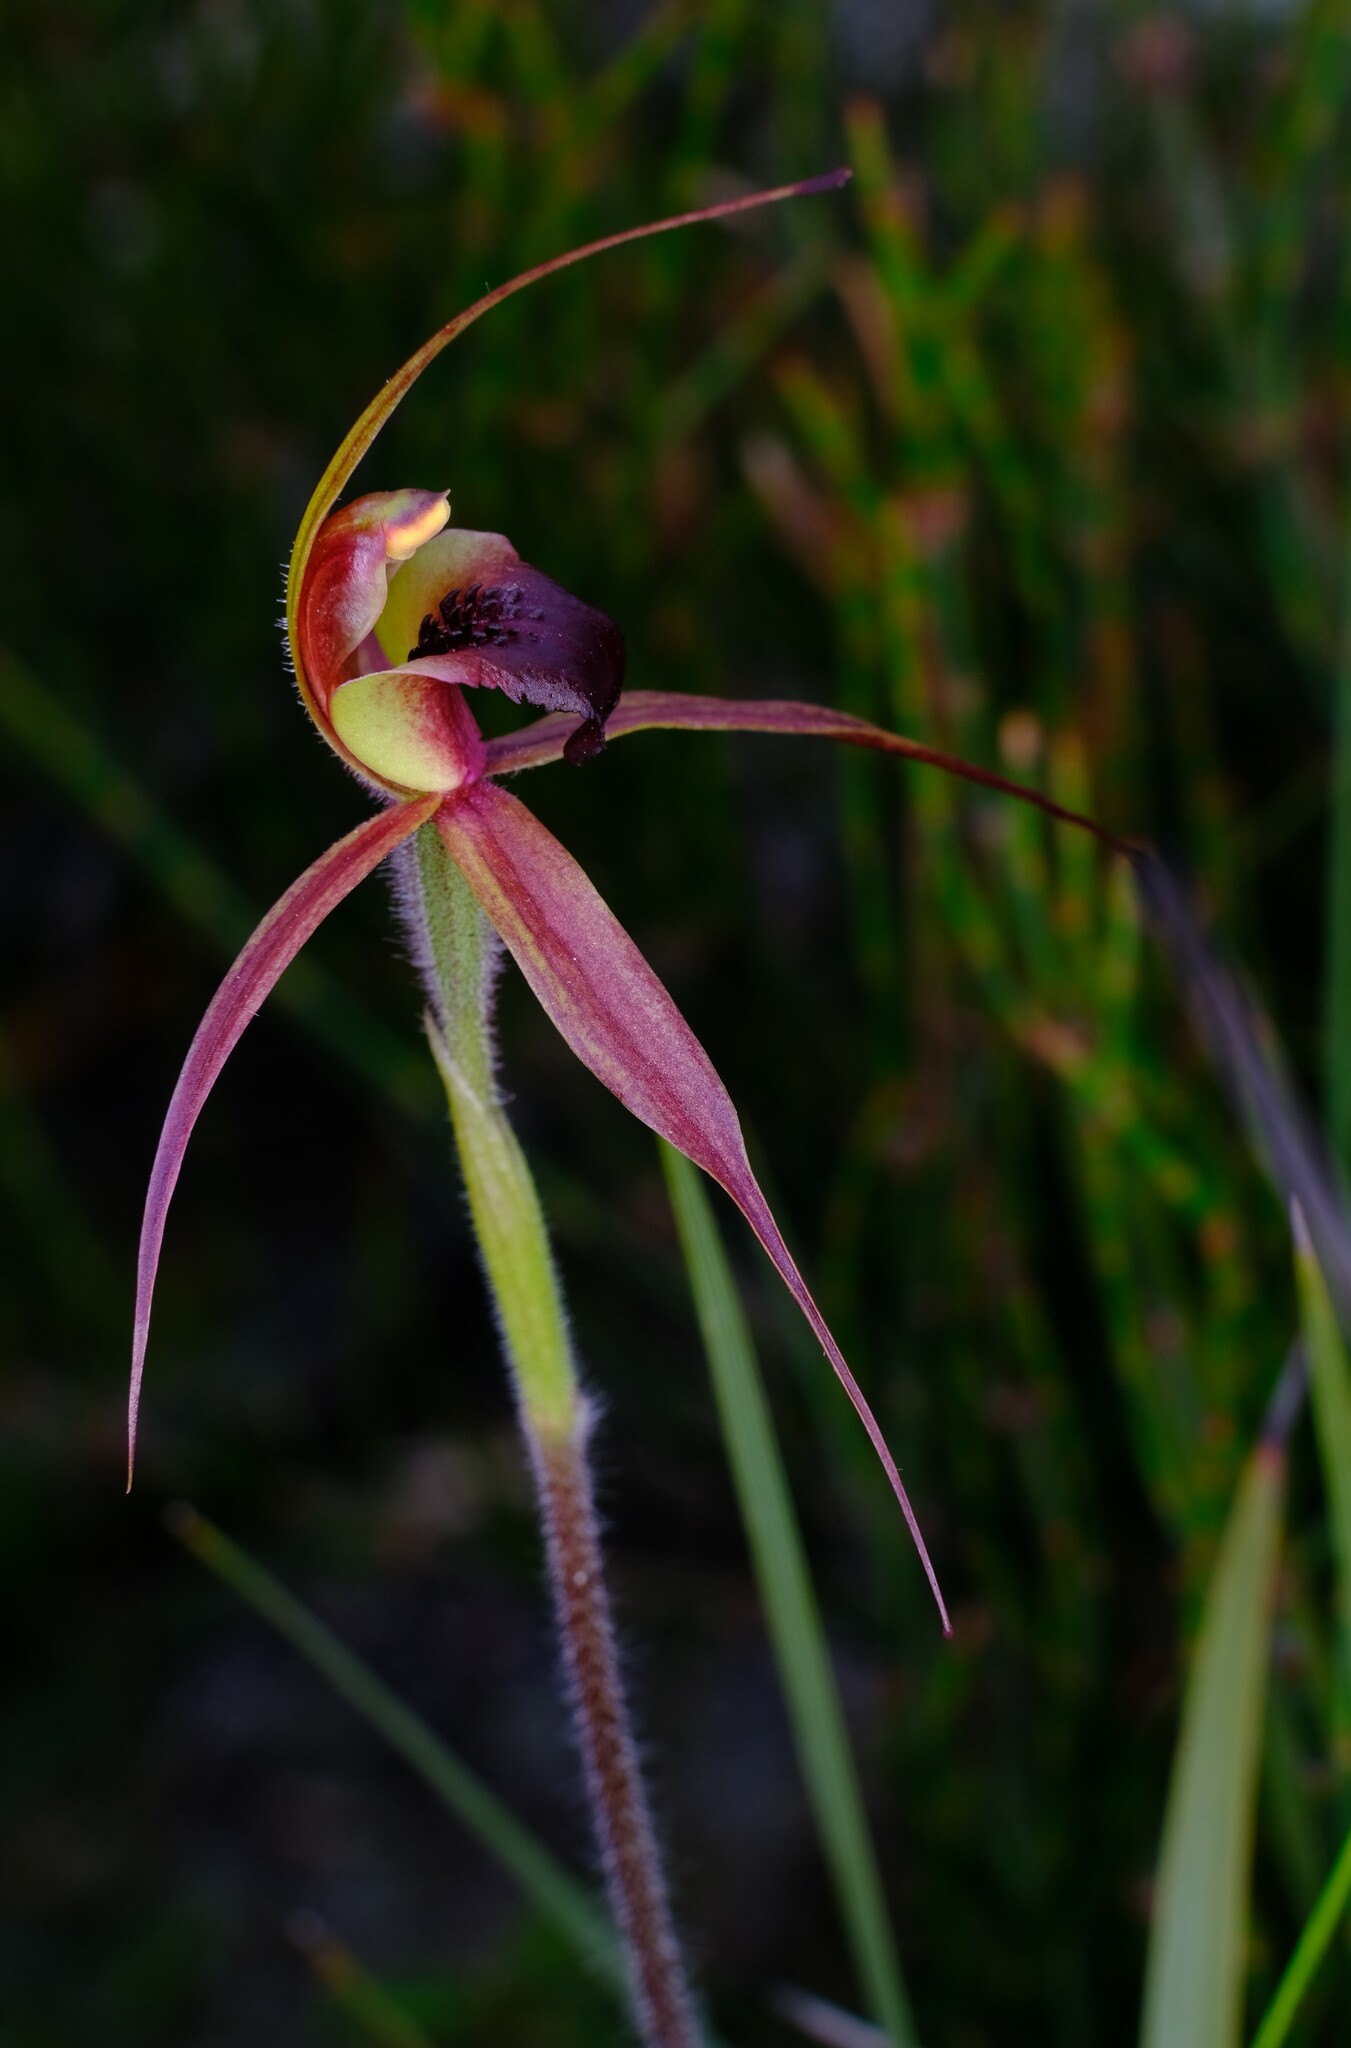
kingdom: Plantae
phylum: Tracheophyta
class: Liliopsida
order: Asparagales
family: Orchidaceae
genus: Caladenia
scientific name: Caladenia clavigera
